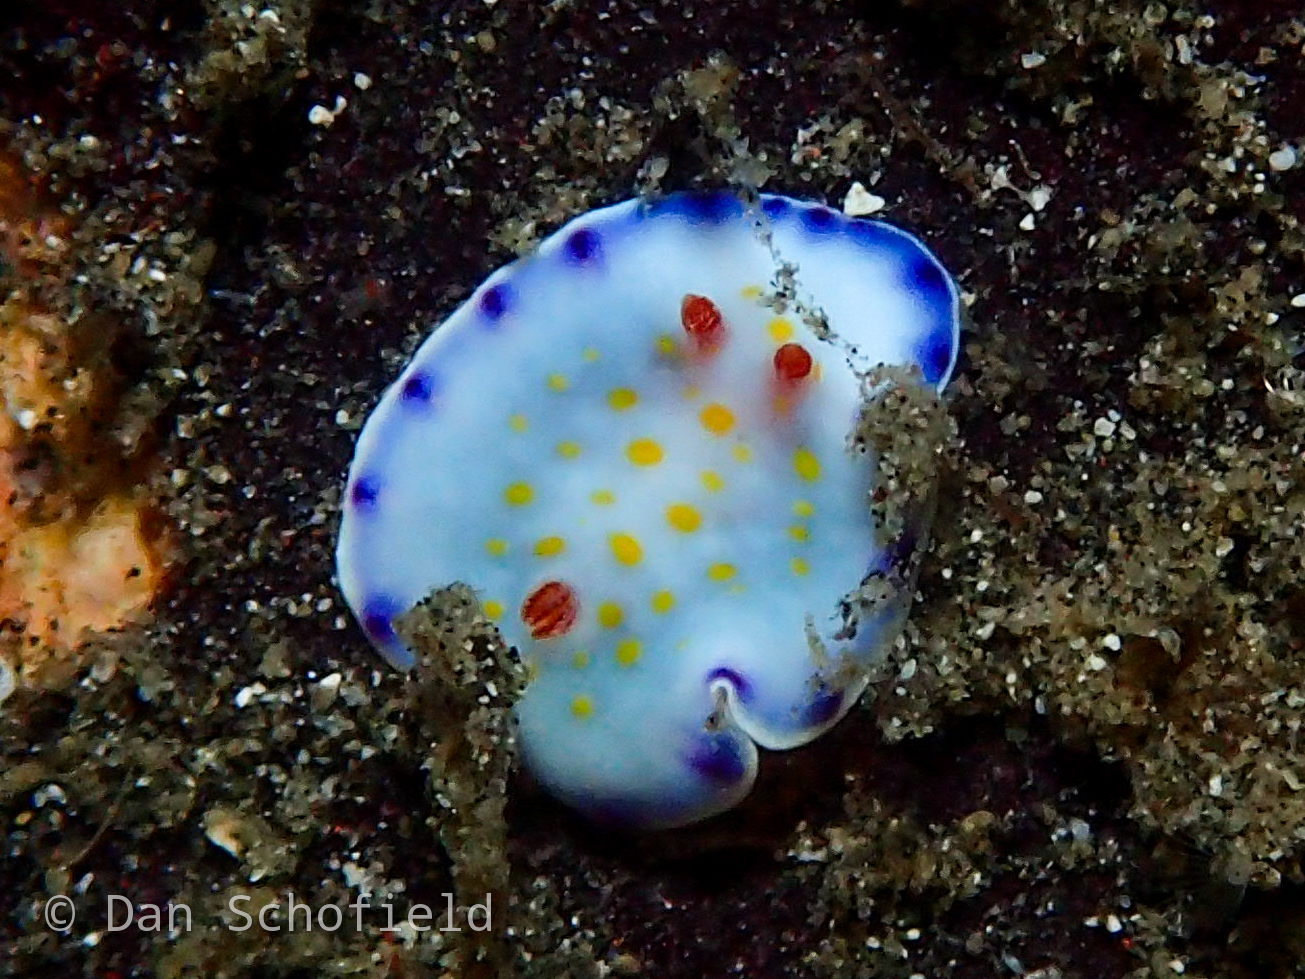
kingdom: Animalia
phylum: Mollusca
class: Gastropoda
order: Nudibranchia
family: Chromodorididae
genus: Goniobranchus
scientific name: Goniobranchus aureopurpureus
